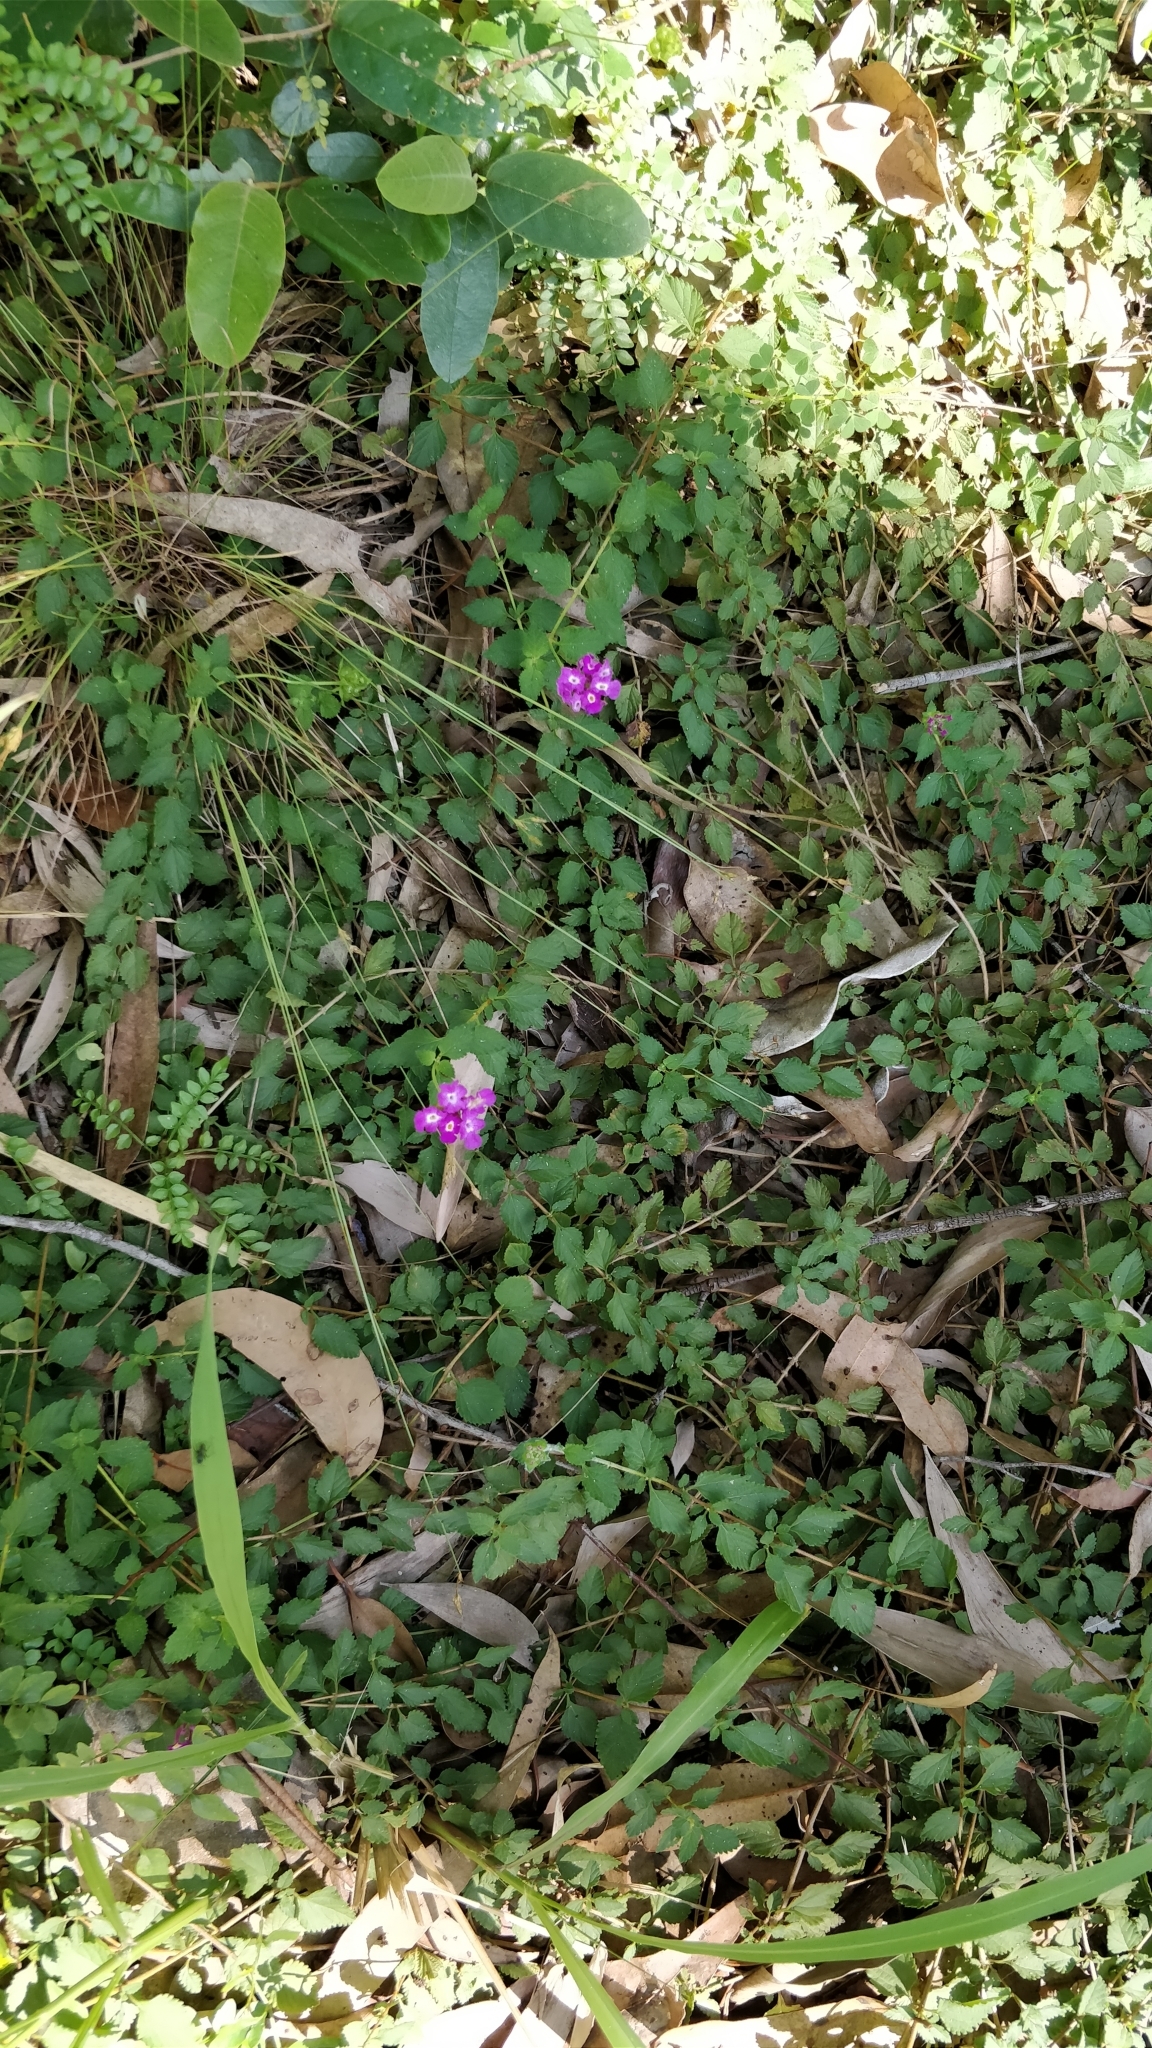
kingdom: Plantae
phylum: Tracheophyta
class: Magnoliopsida
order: Lamiales
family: Verbenaceae
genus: Lantana
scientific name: Lantana montevidensis
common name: Trailing shrubverbena
